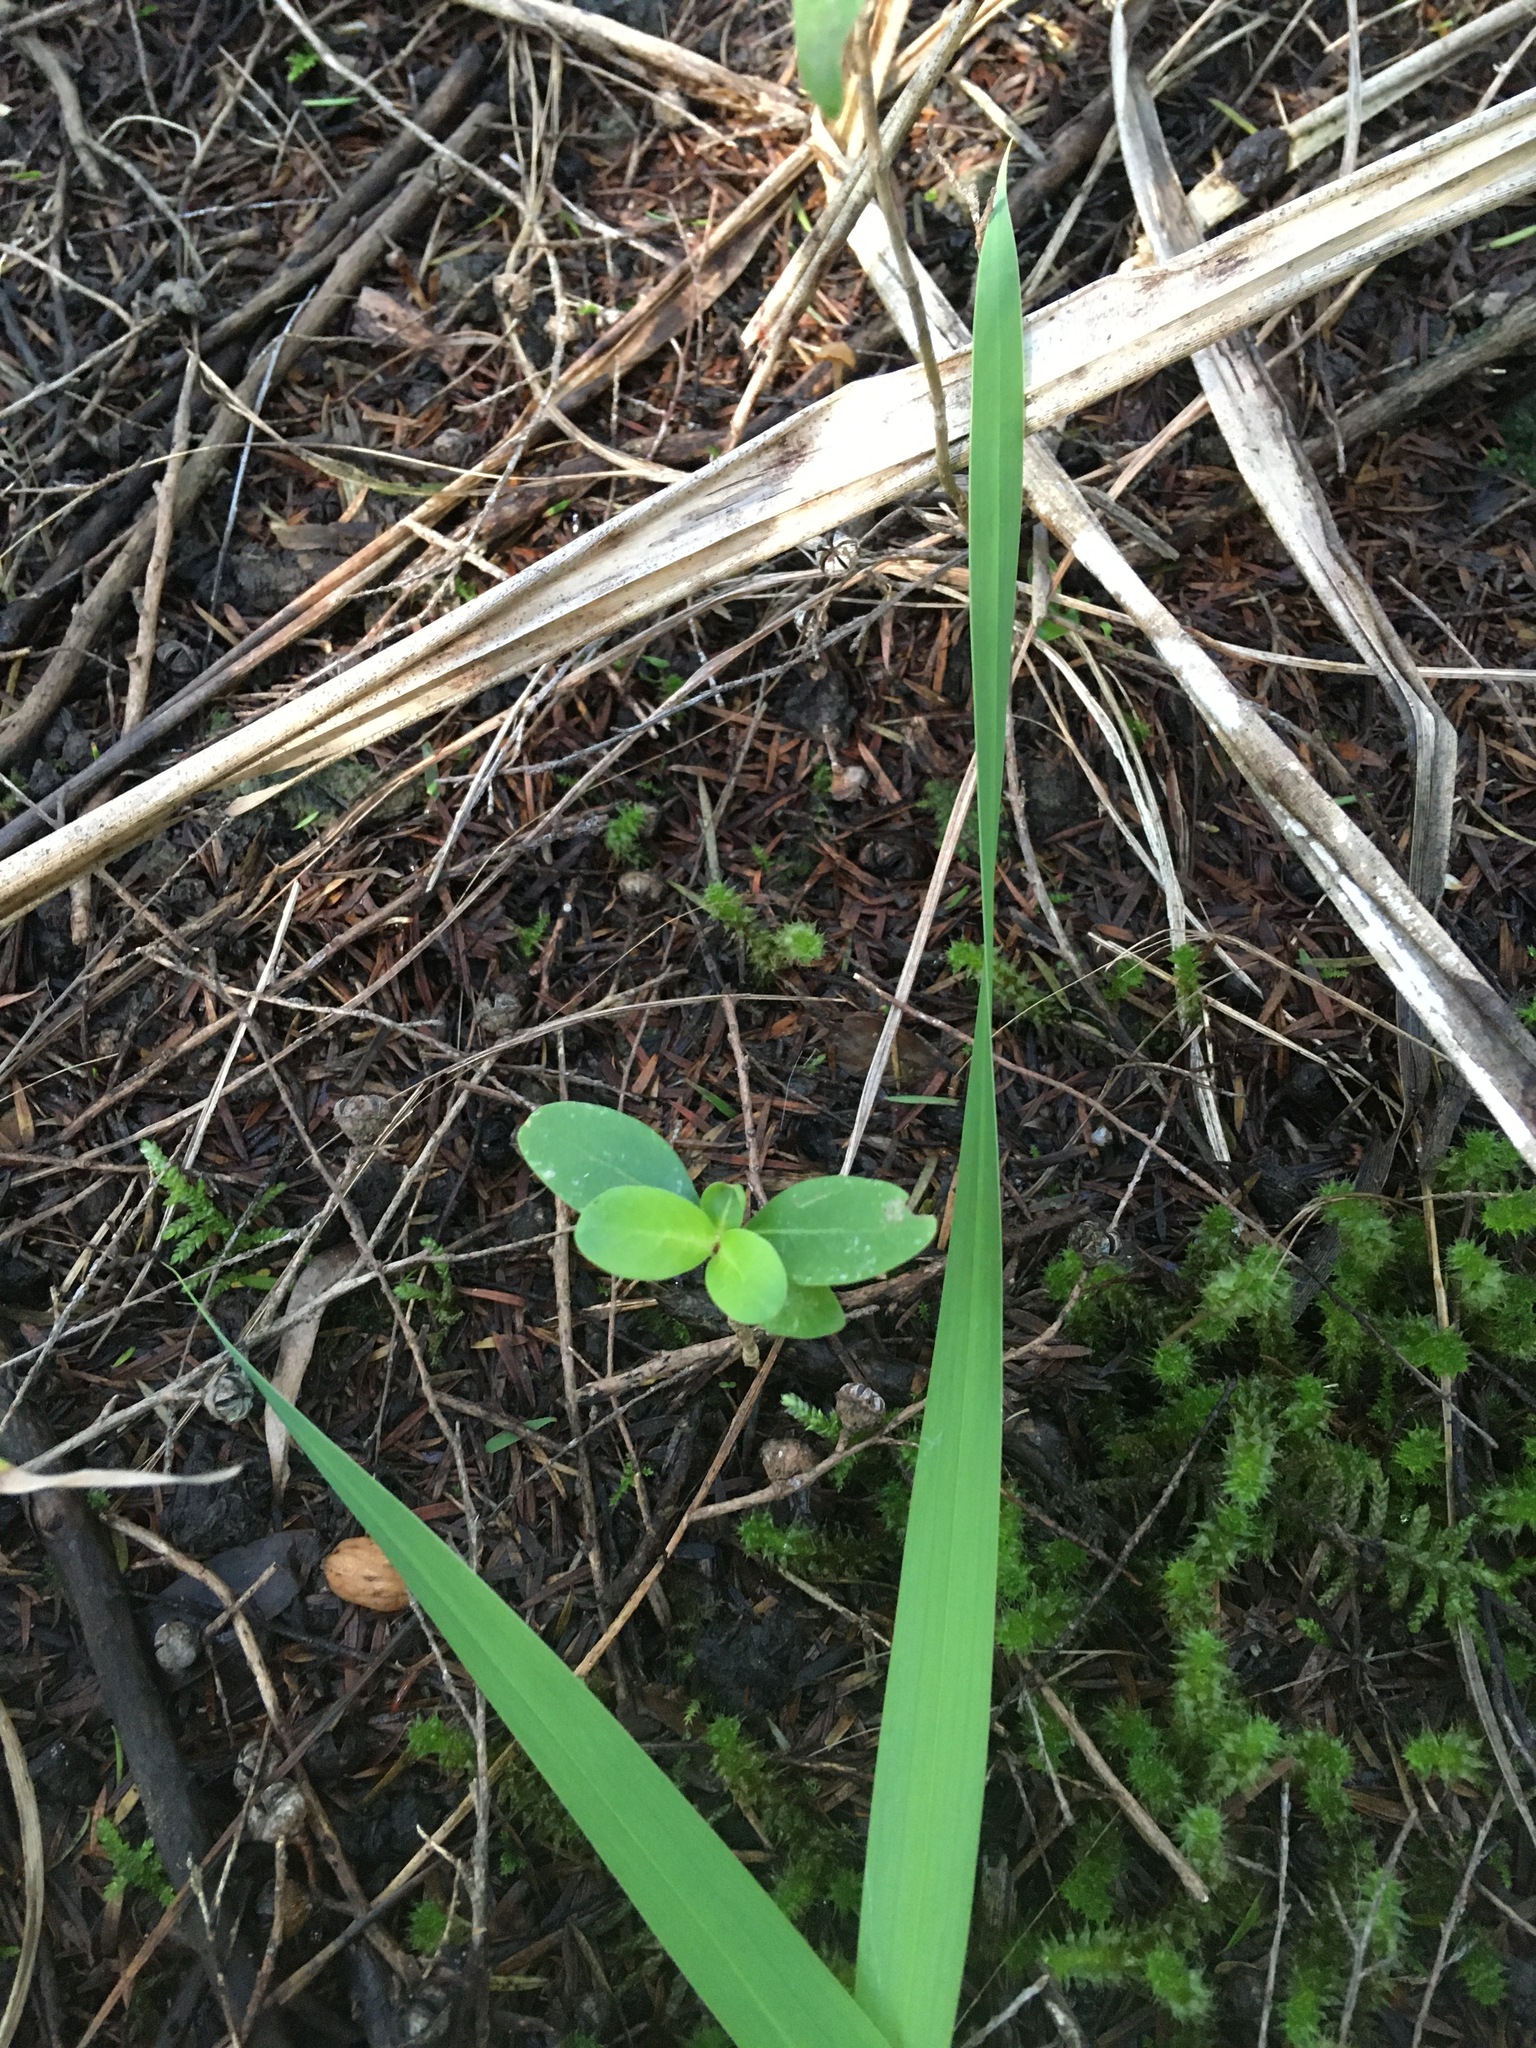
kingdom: Plantae
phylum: Tracheophyta
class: Magnoliopsida
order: Gentianales
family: Rubiaceae
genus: Coprosma
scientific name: Coprosma lucida
